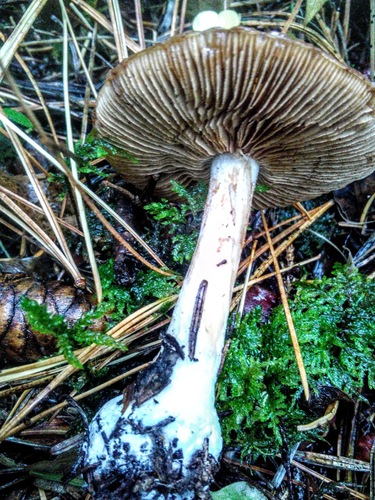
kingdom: Fungi
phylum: Basidiomycota
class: Agaricomycetes
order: Agaricales
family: Strophariaceae
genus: Stropharia
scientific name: Stropharia
